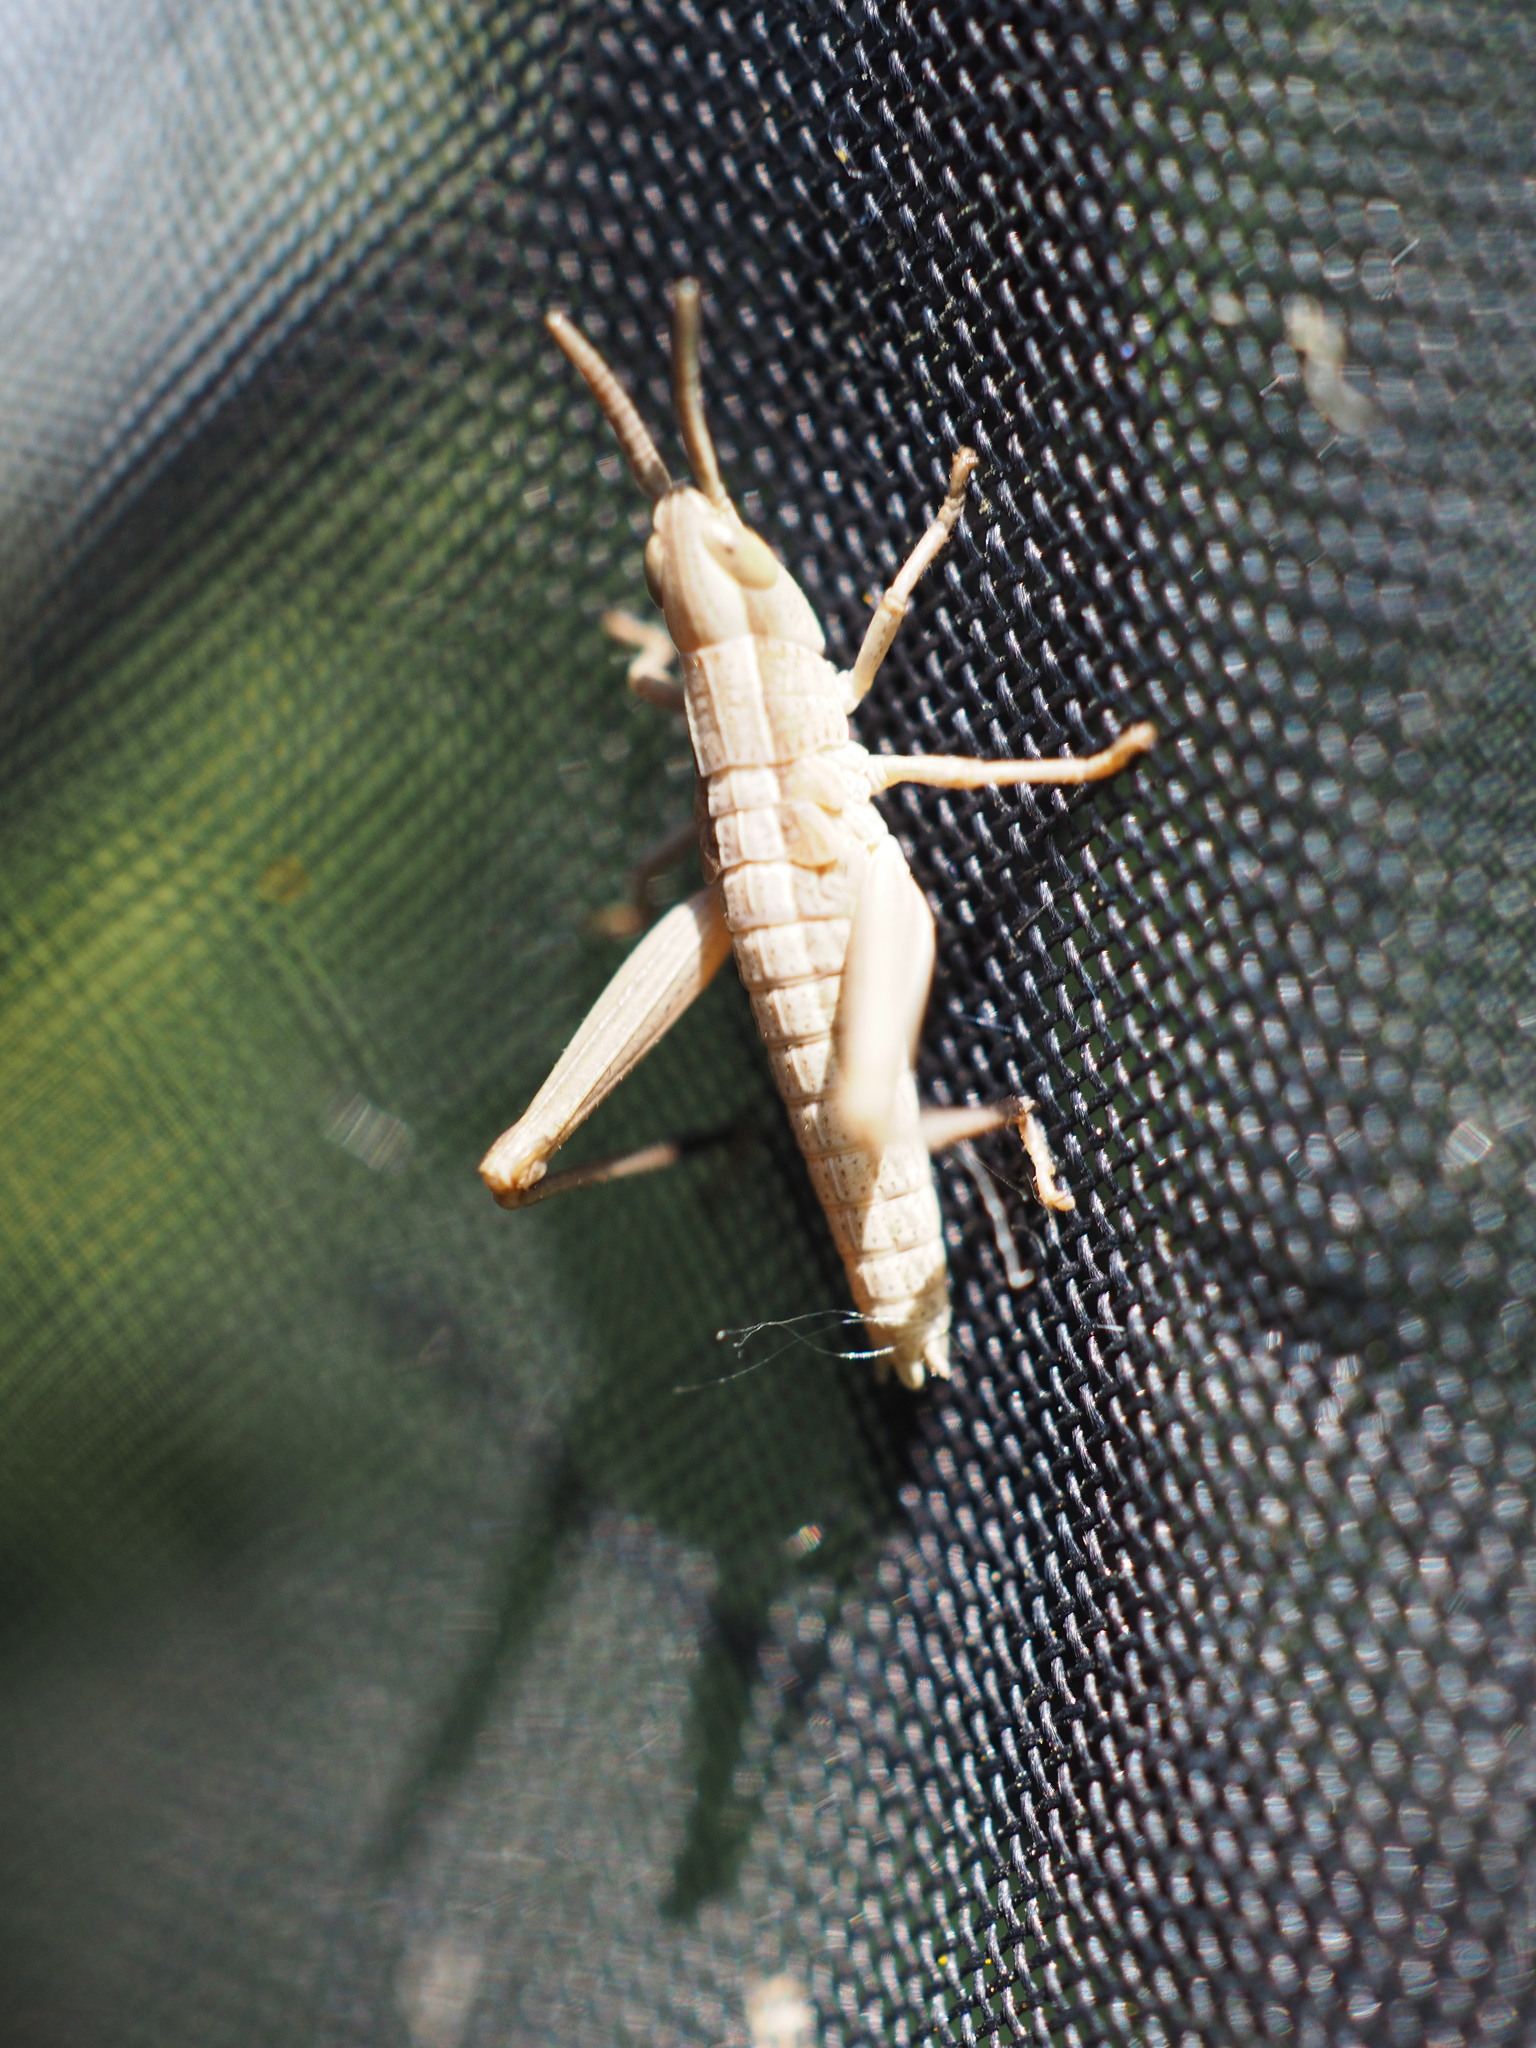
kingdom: Animalia
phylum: Arthropoda
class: Insecta
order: Orthoptera
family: Acrididae
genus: Chrysochraon
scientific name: Chrysochraon dispar
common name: Large gold grasshopper
